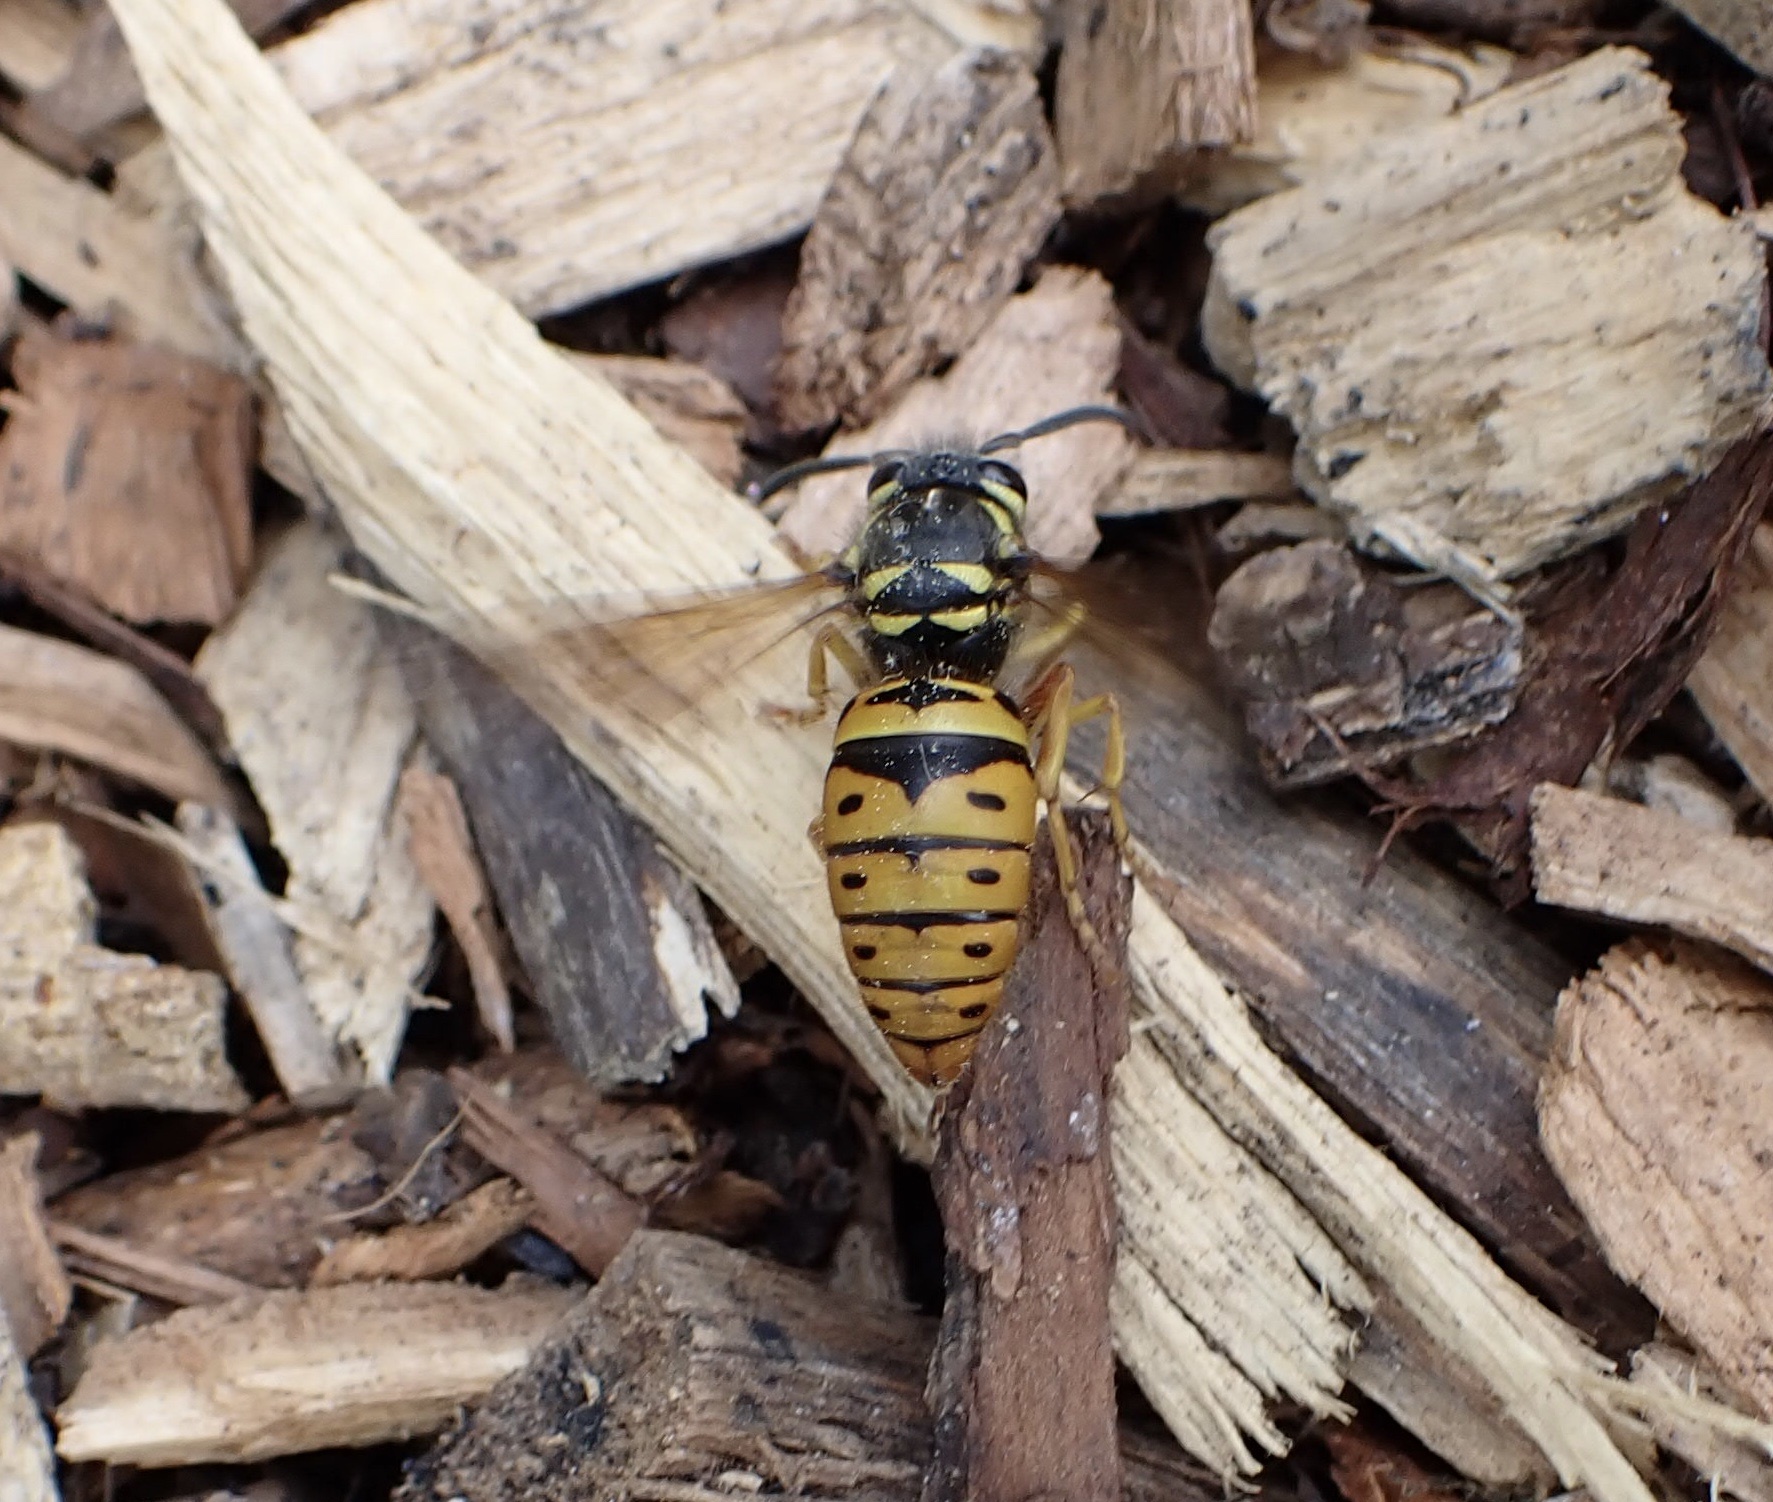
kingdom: Animalia
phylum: Arthropoda
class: Insecta
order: Hymenoptera
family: Vespidae
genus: Vespula
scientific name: Vespula maculifrons
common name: Eastern yellowjacket
